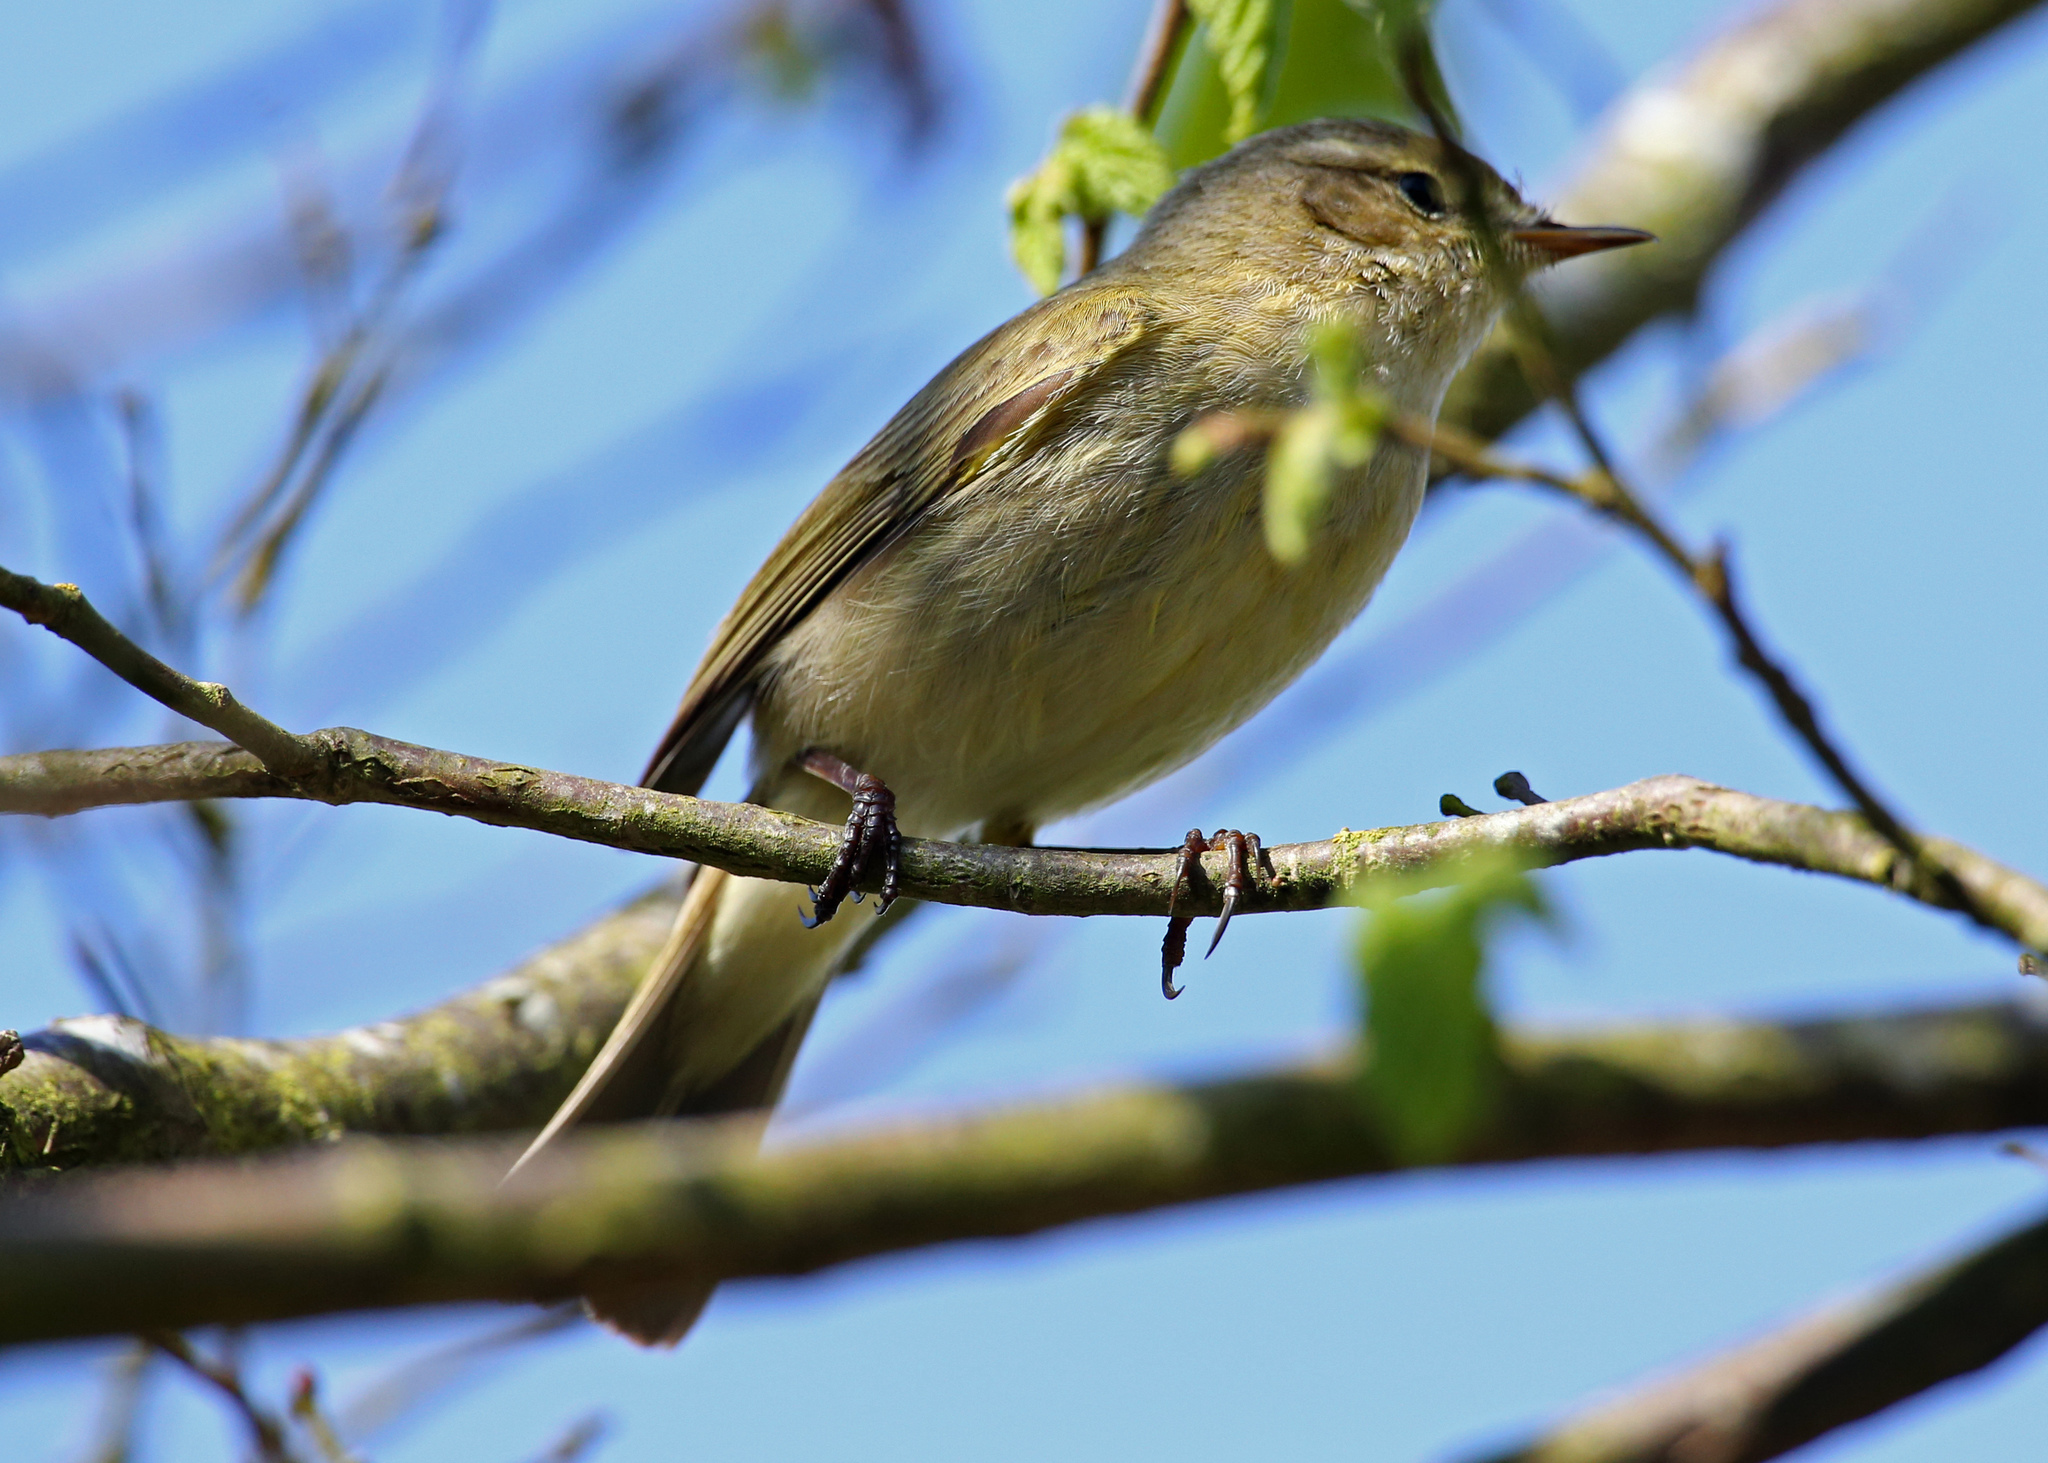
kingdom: Animalia
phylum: Chordata
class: Aves
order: Passeriformes
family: Phylloscopidae
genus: Phylloscopus
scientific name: Phylloscopus collybita
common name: Common chiffchaff
